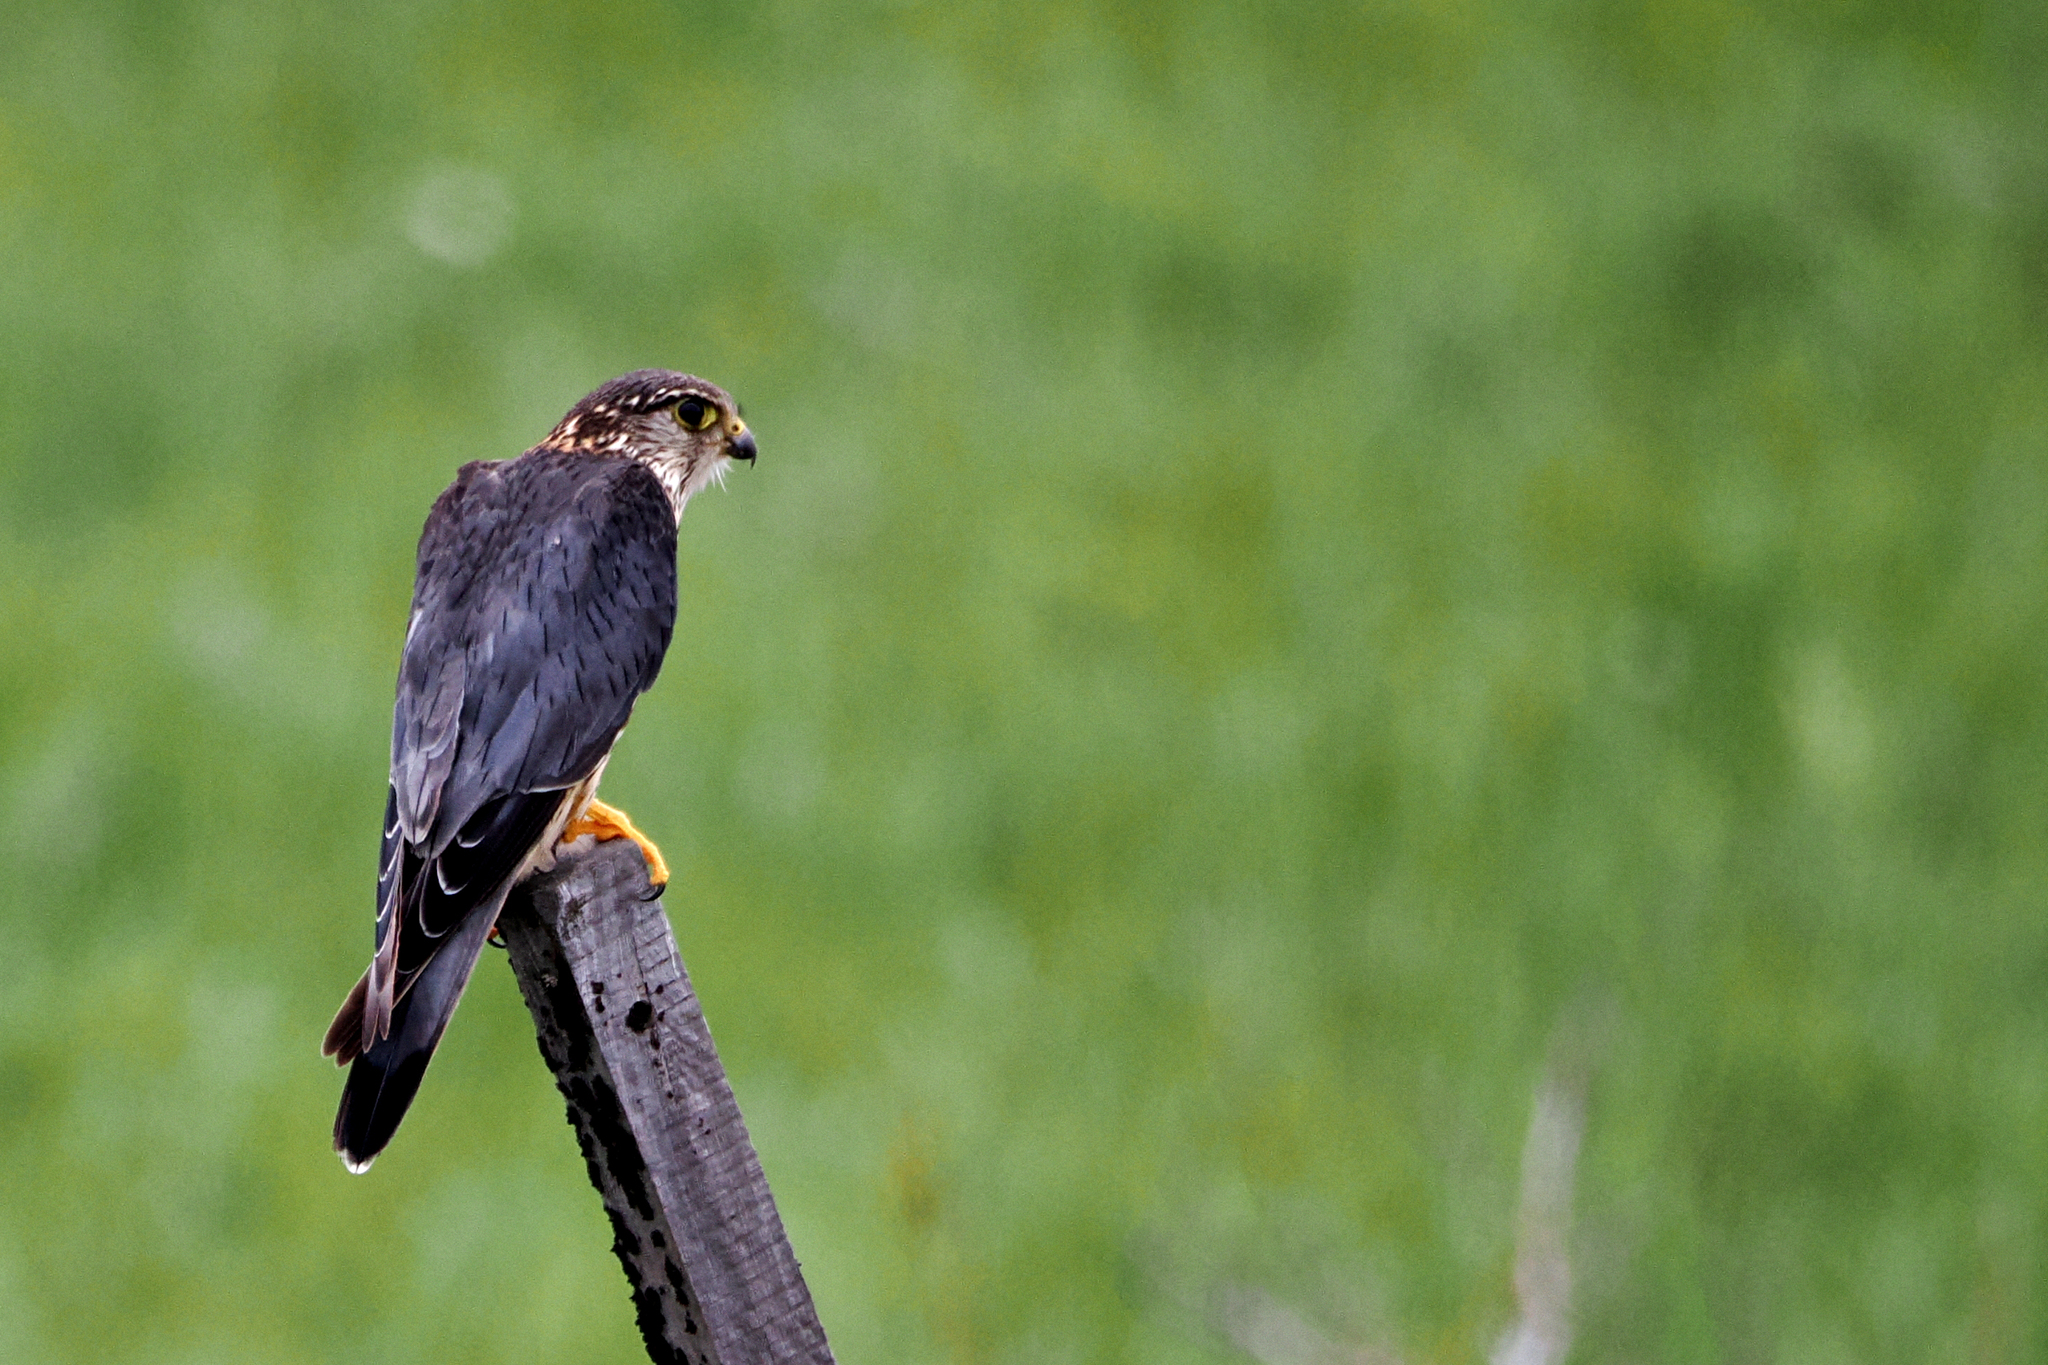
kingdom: Animalia
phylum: Chordata
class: Aves
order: Falconiformes
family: Falconidae
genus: Falco
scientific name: Falco columbarius
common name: Merlin
